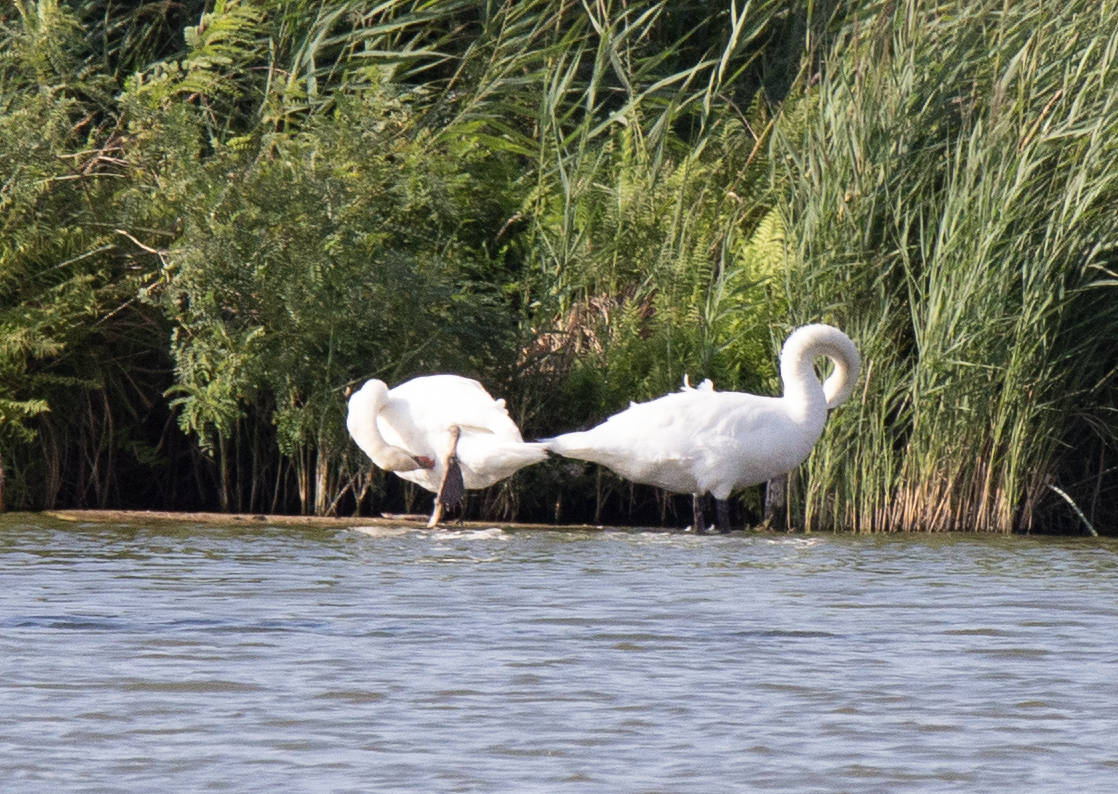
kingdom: Animalia
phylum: Chordata
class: Aves
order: Anseriformes
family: Anatidae
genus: Cygnus
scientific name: Cygnus olor
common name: Mute swan
